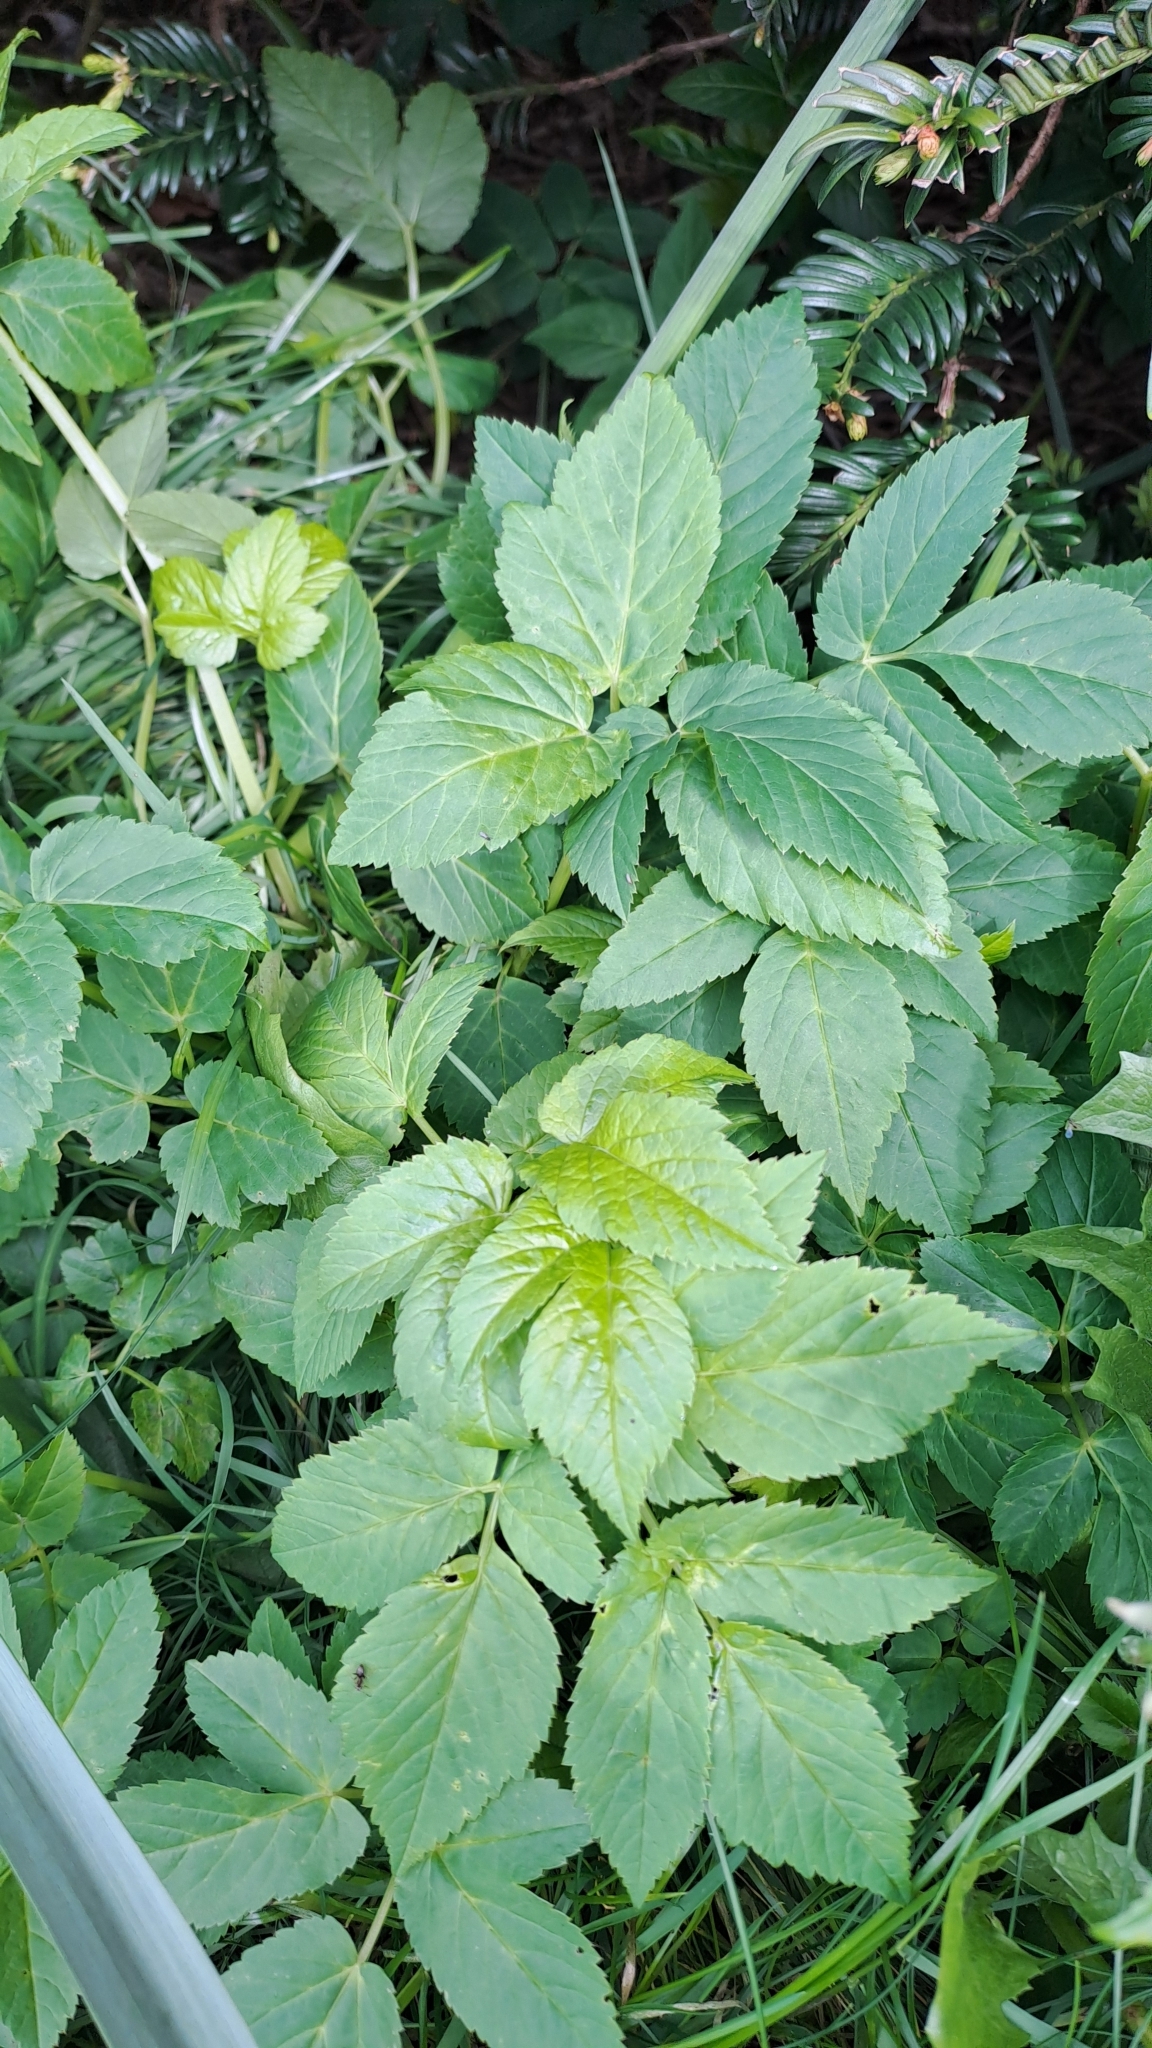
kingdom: Plantae
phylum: Tracheophyta
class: Magnoliopsida
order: Apiales
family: Apiaceae
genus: Aegopodium
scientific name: Aegopodium podagraria
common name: Ground-elder
